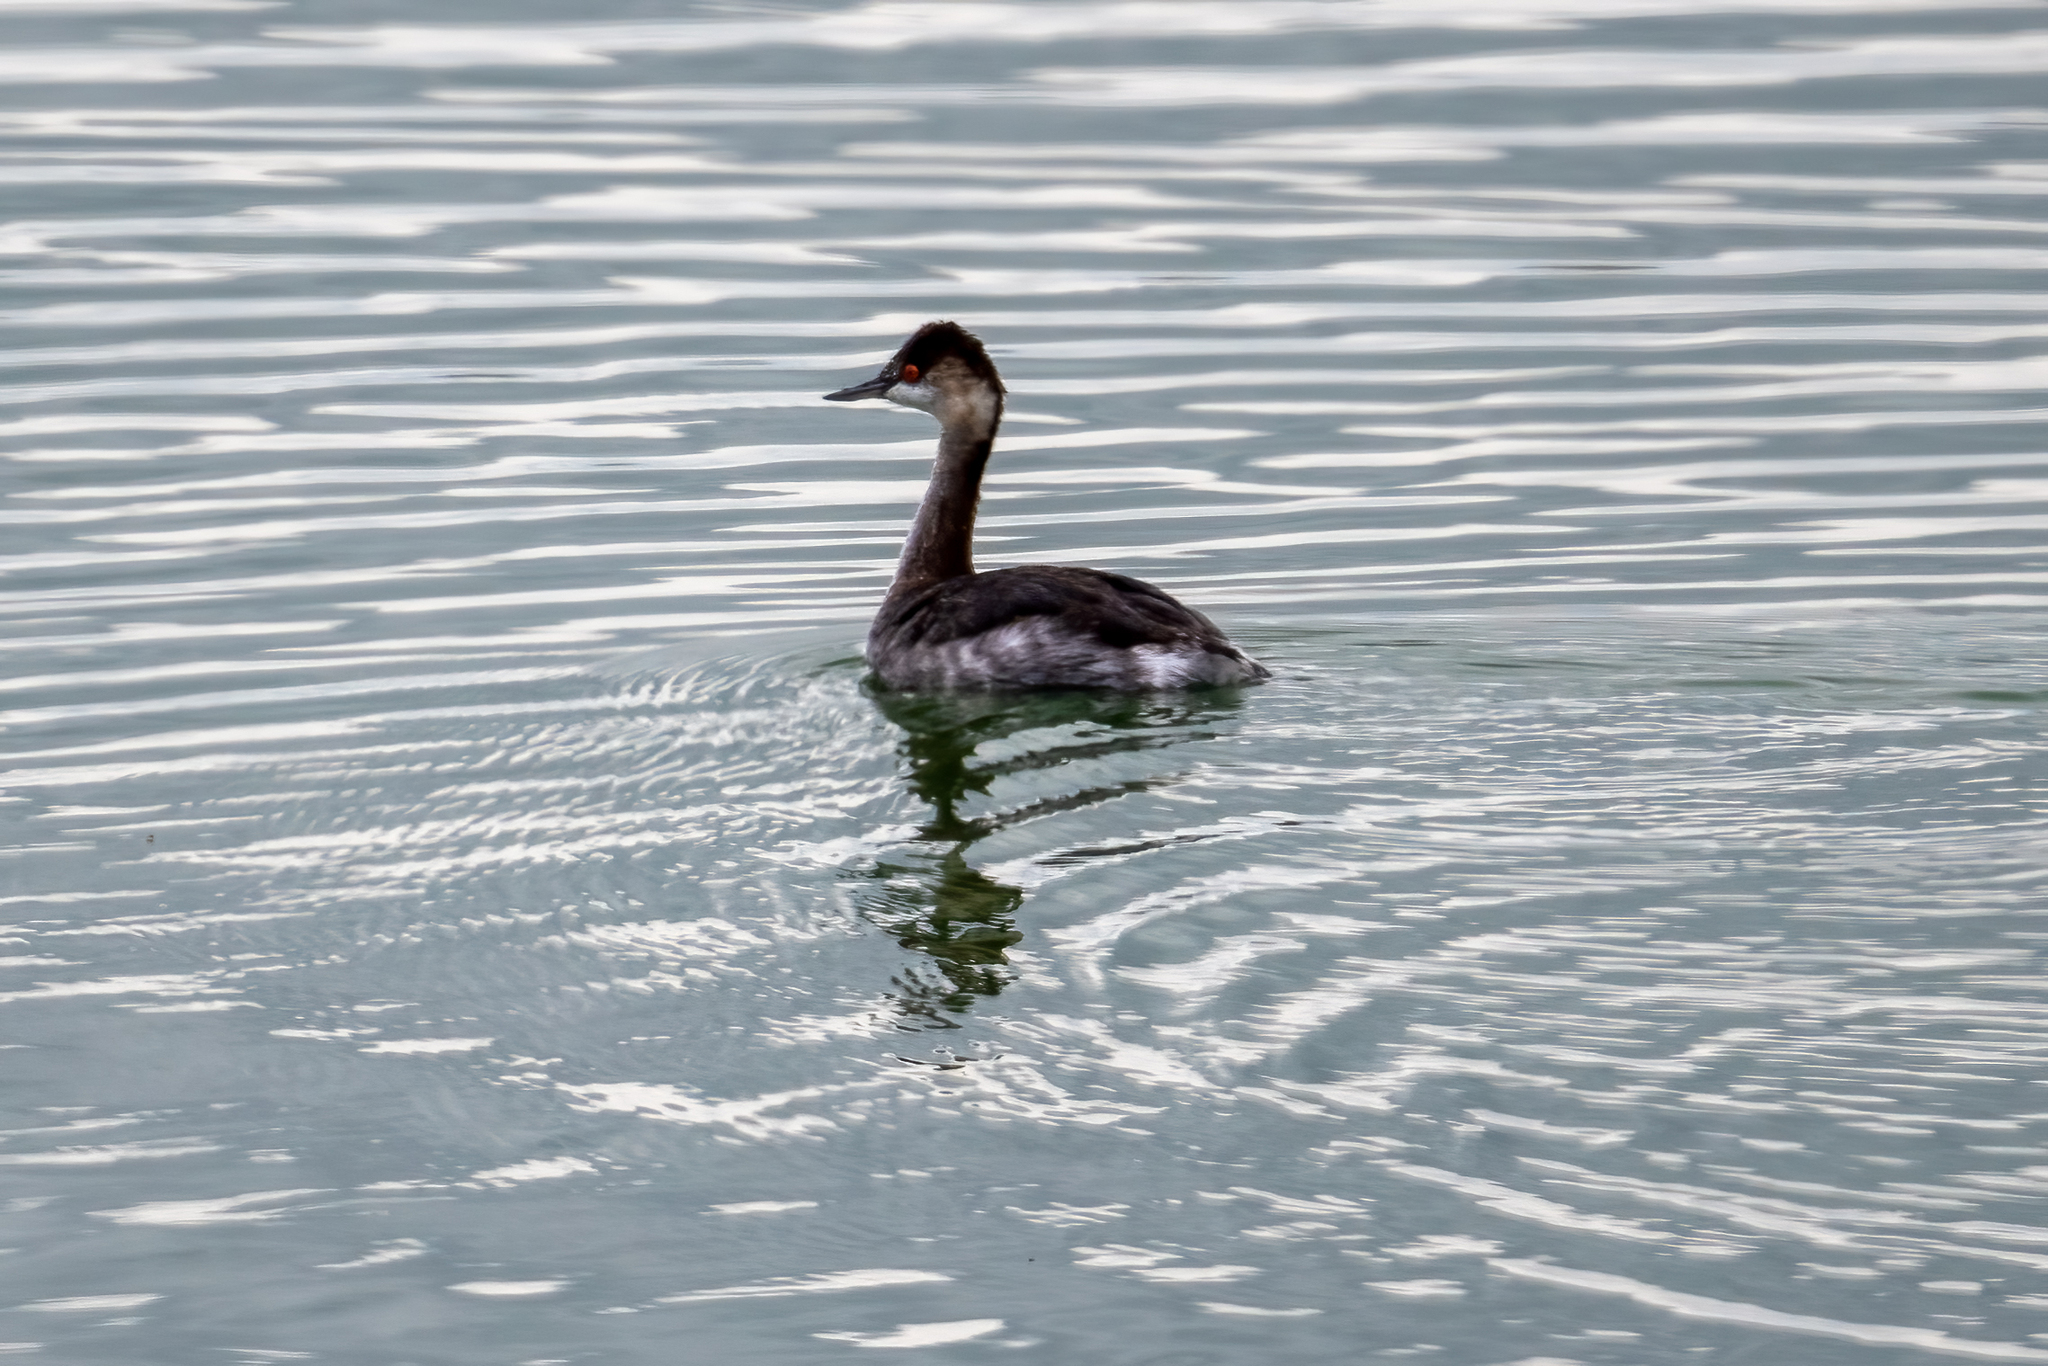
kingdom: Animalia
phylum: Chordata
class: Aves
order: Podicipediformes
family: Podicipedidae
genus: Podiceps
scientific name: Podiceps nigricollis
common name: Black-necked grebe
